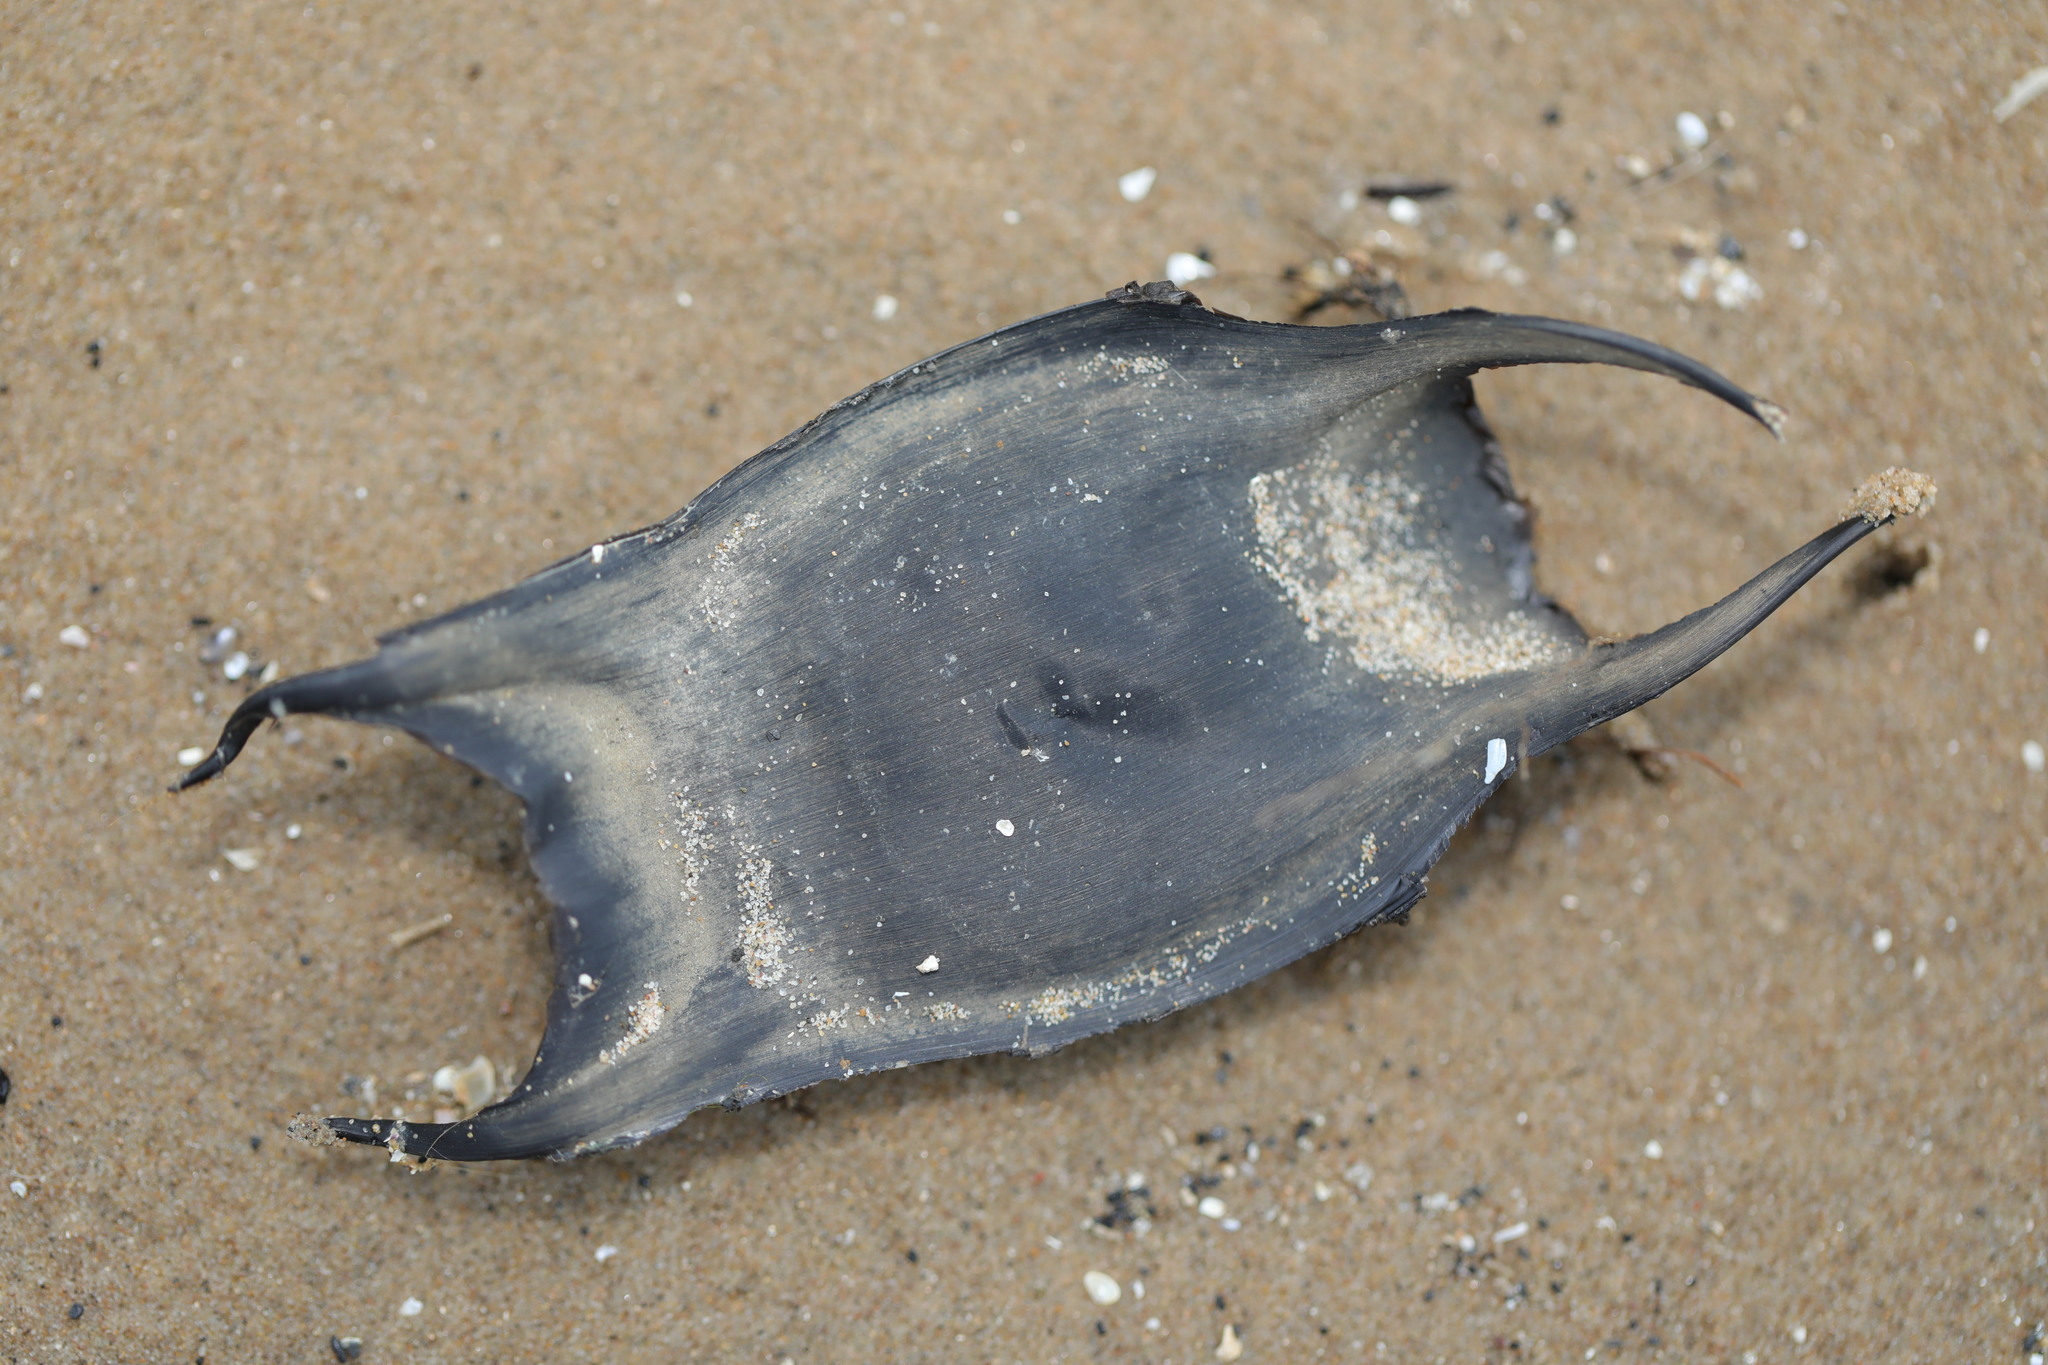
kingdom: Animalia
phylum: Chordata
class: Elasmobranchii
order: Rajiformes
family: Rajidae
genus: Raja
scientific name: Raja clavata
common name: Thornback ray
